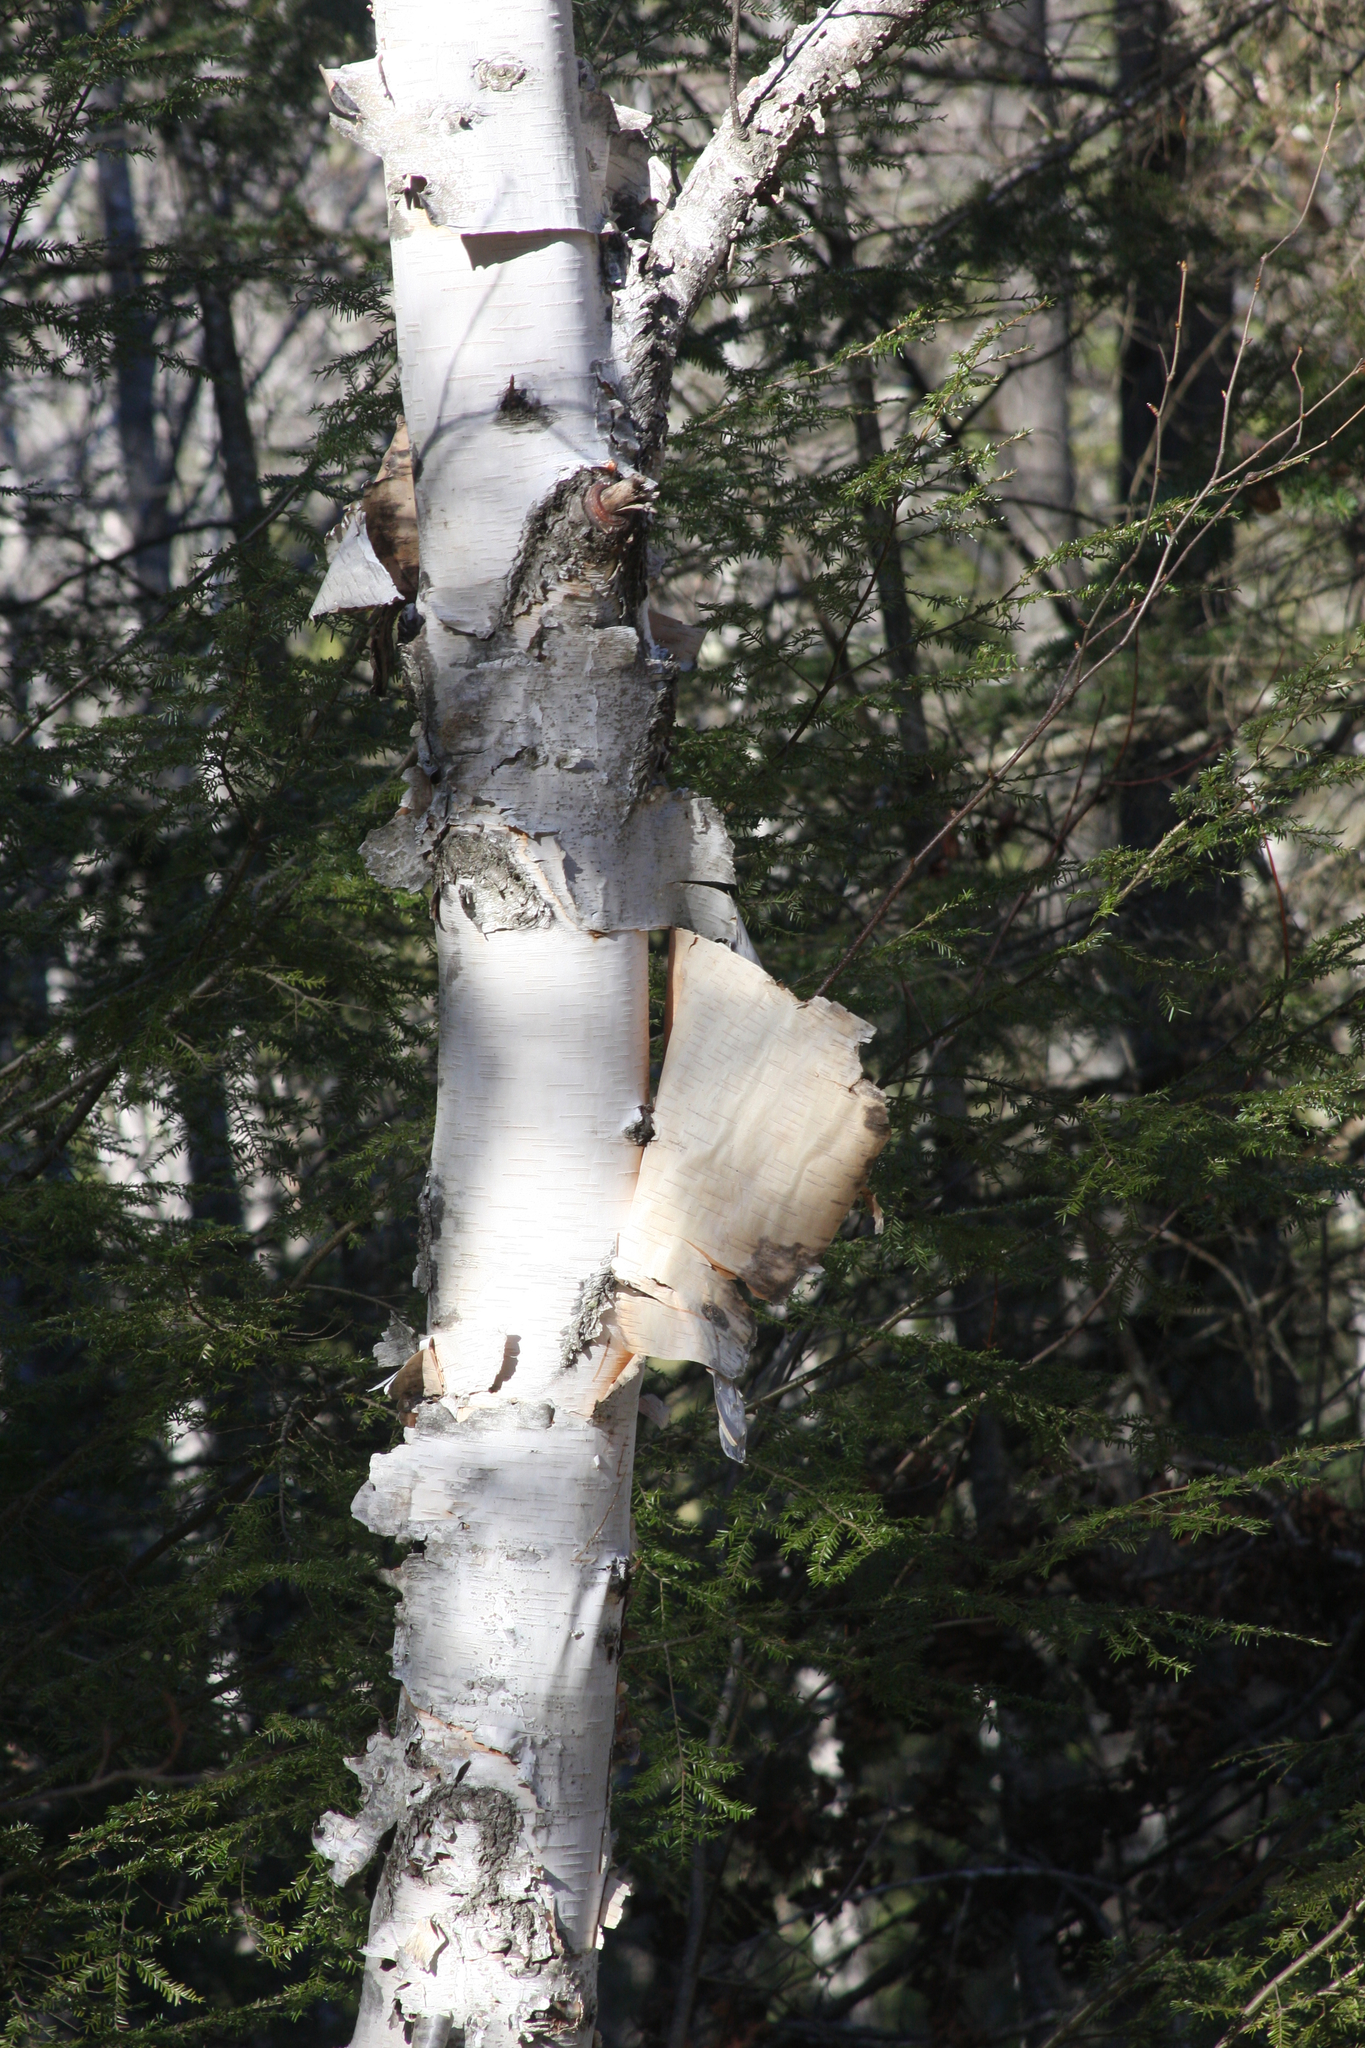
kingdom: Plantae
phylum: Tracheophyta
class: Magnoliopsida
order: Fagales
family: Betulaceae
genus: Betula
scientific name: Betula papyrifera
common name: Paper birch
